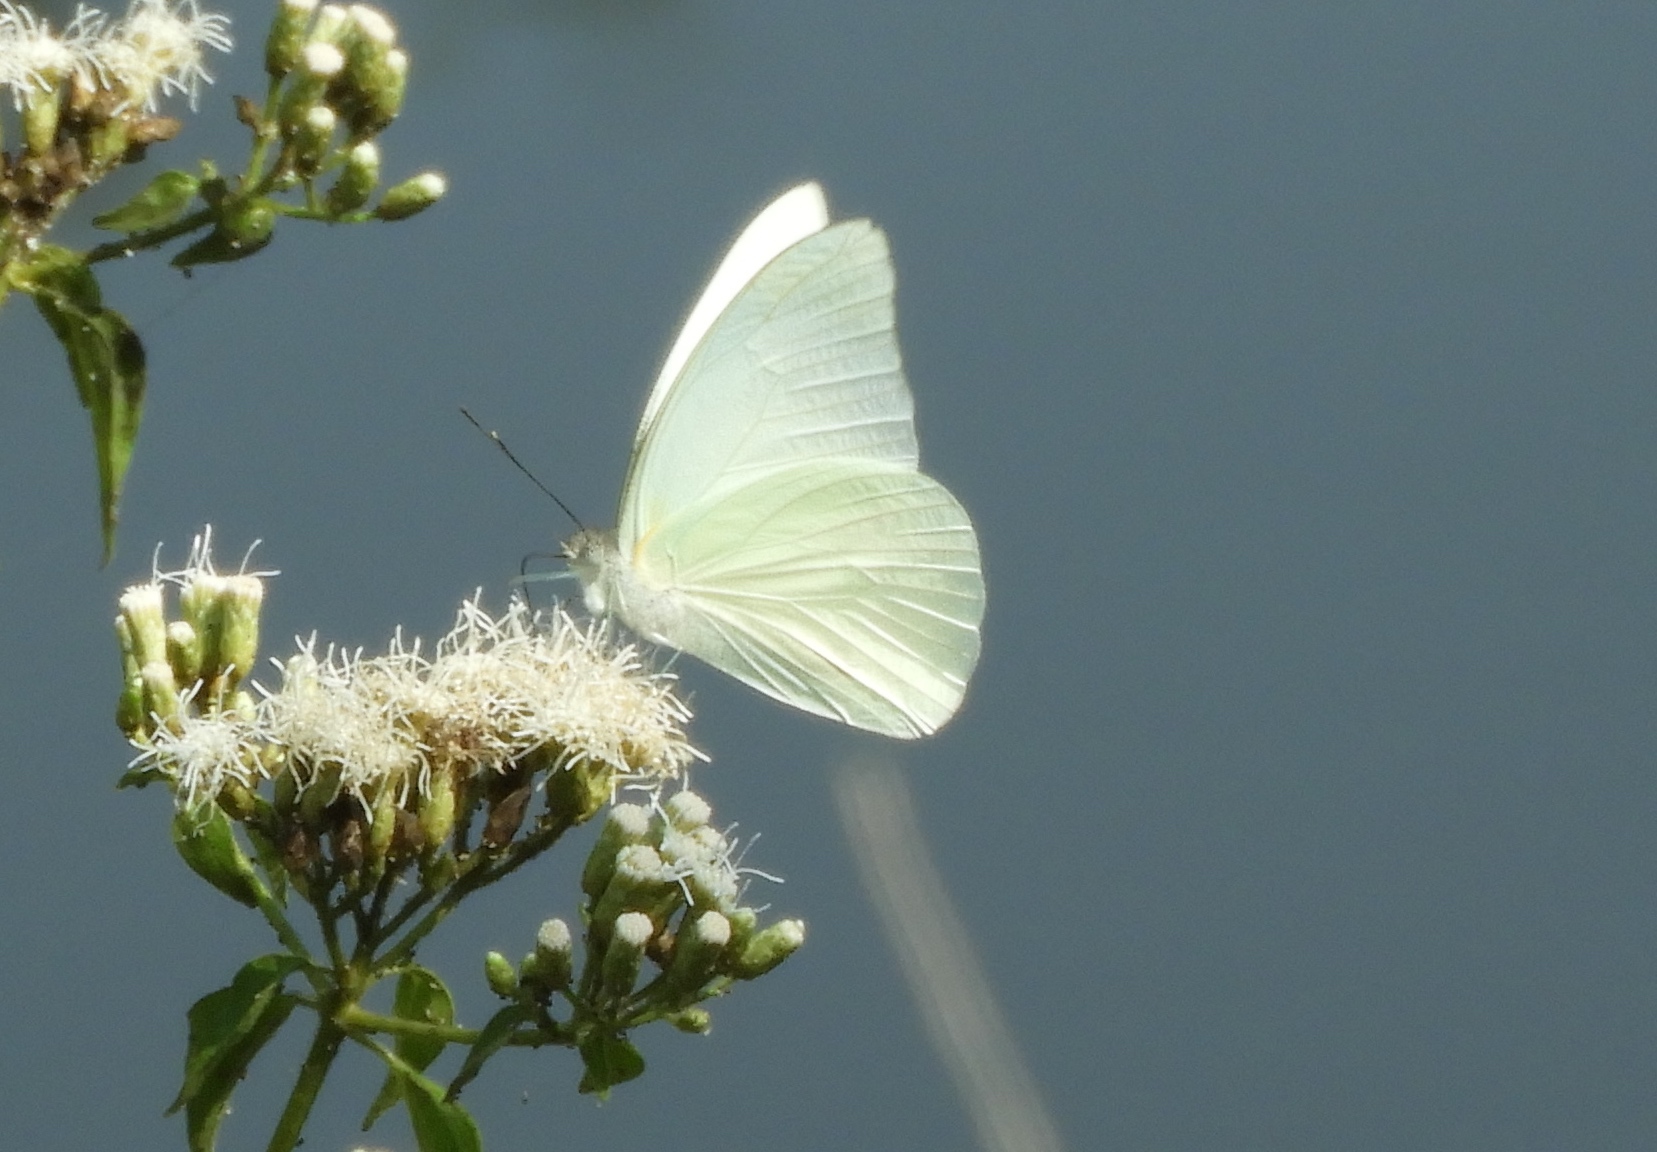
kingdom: Animalia
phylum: Arthropoda
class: Insecta
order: Lepidoptera
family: Pieridae
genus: Glutophrissa
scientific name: Glutophrissa drusilla
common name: Florida white
